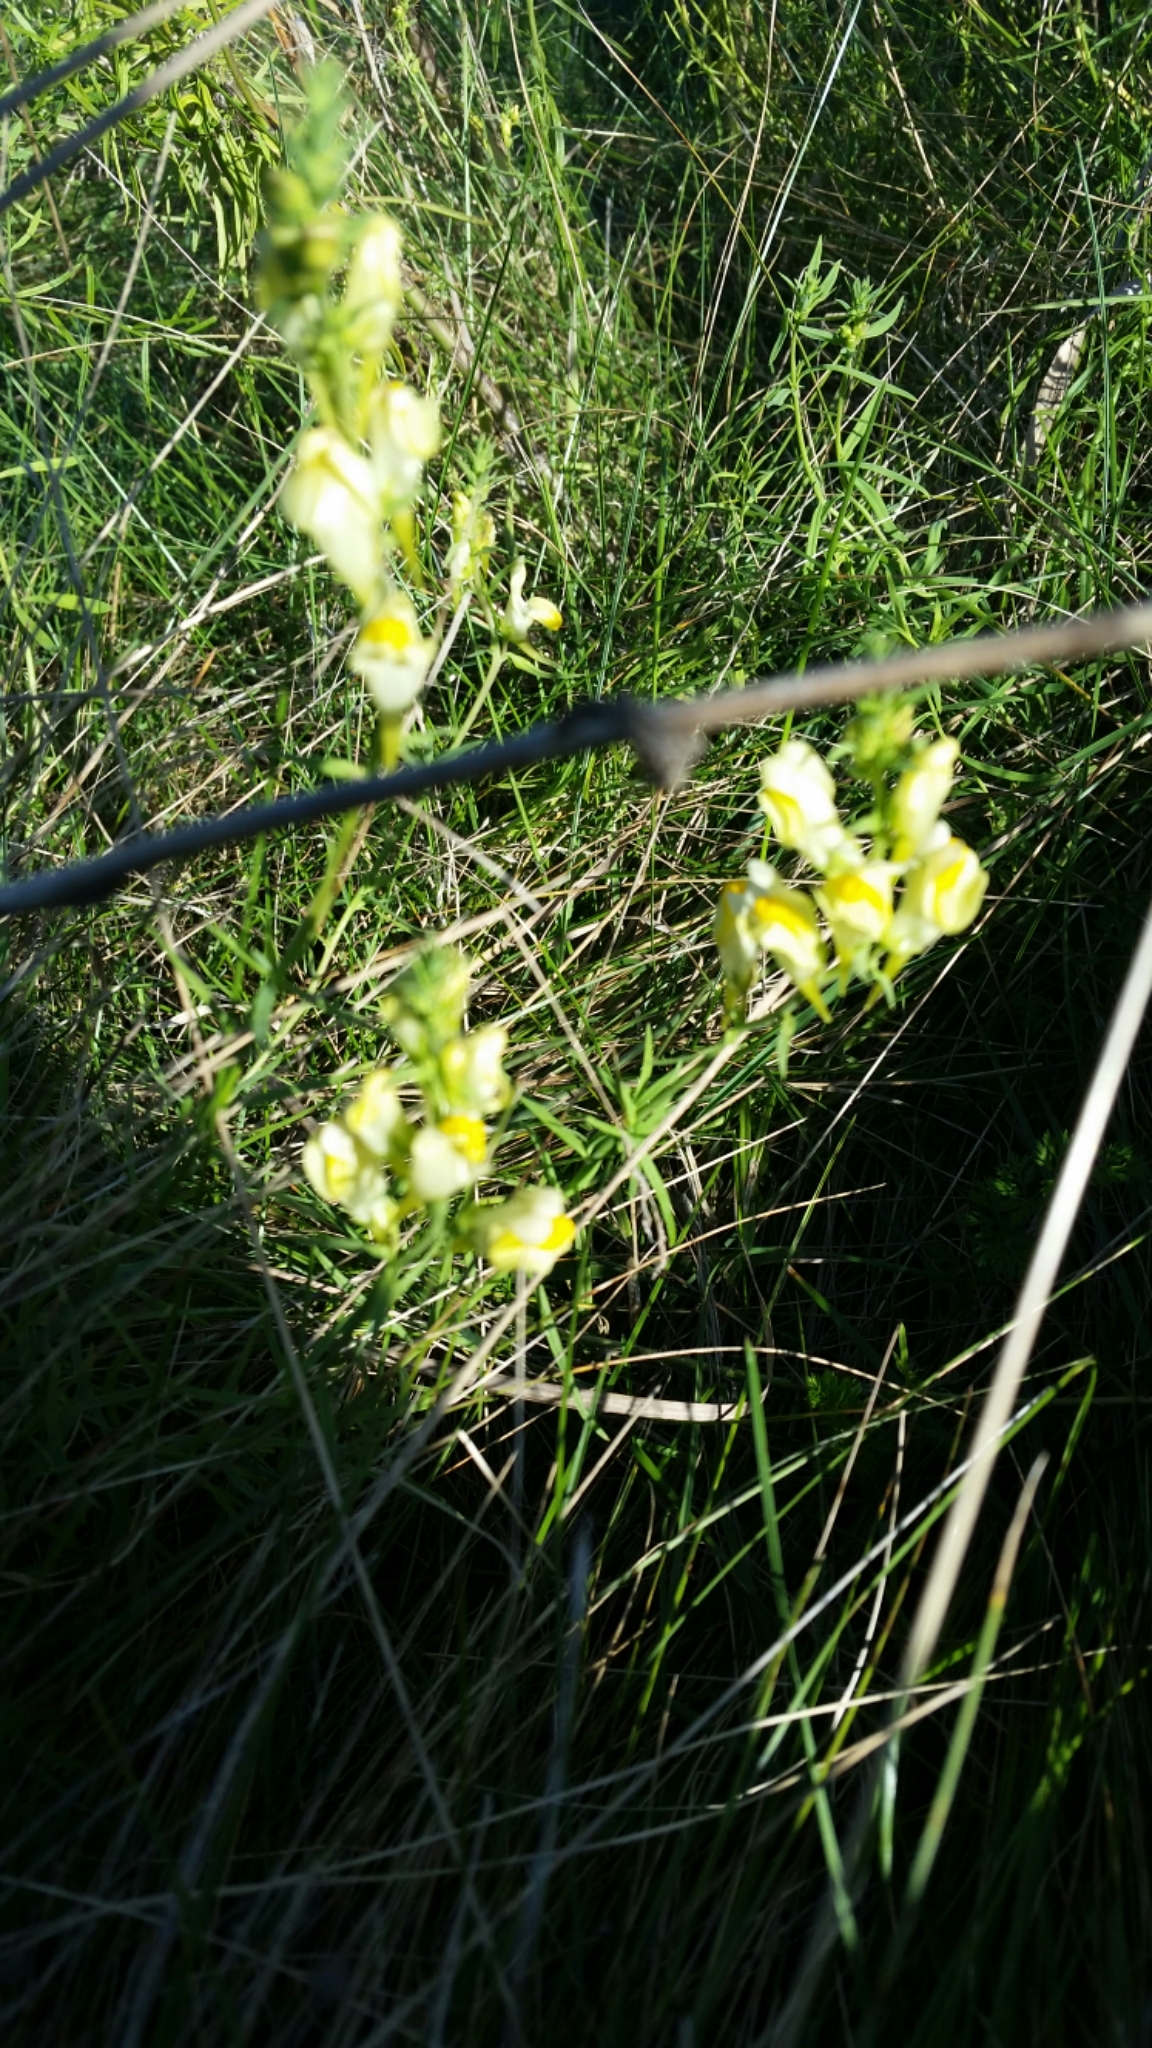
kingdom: Plantae
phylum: Tracheophyta
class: Magnoliopsida
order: Lamiales
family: Plantaginaceae
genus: Linaria
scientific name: Linaria vulgaris
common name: Butter and eggs
